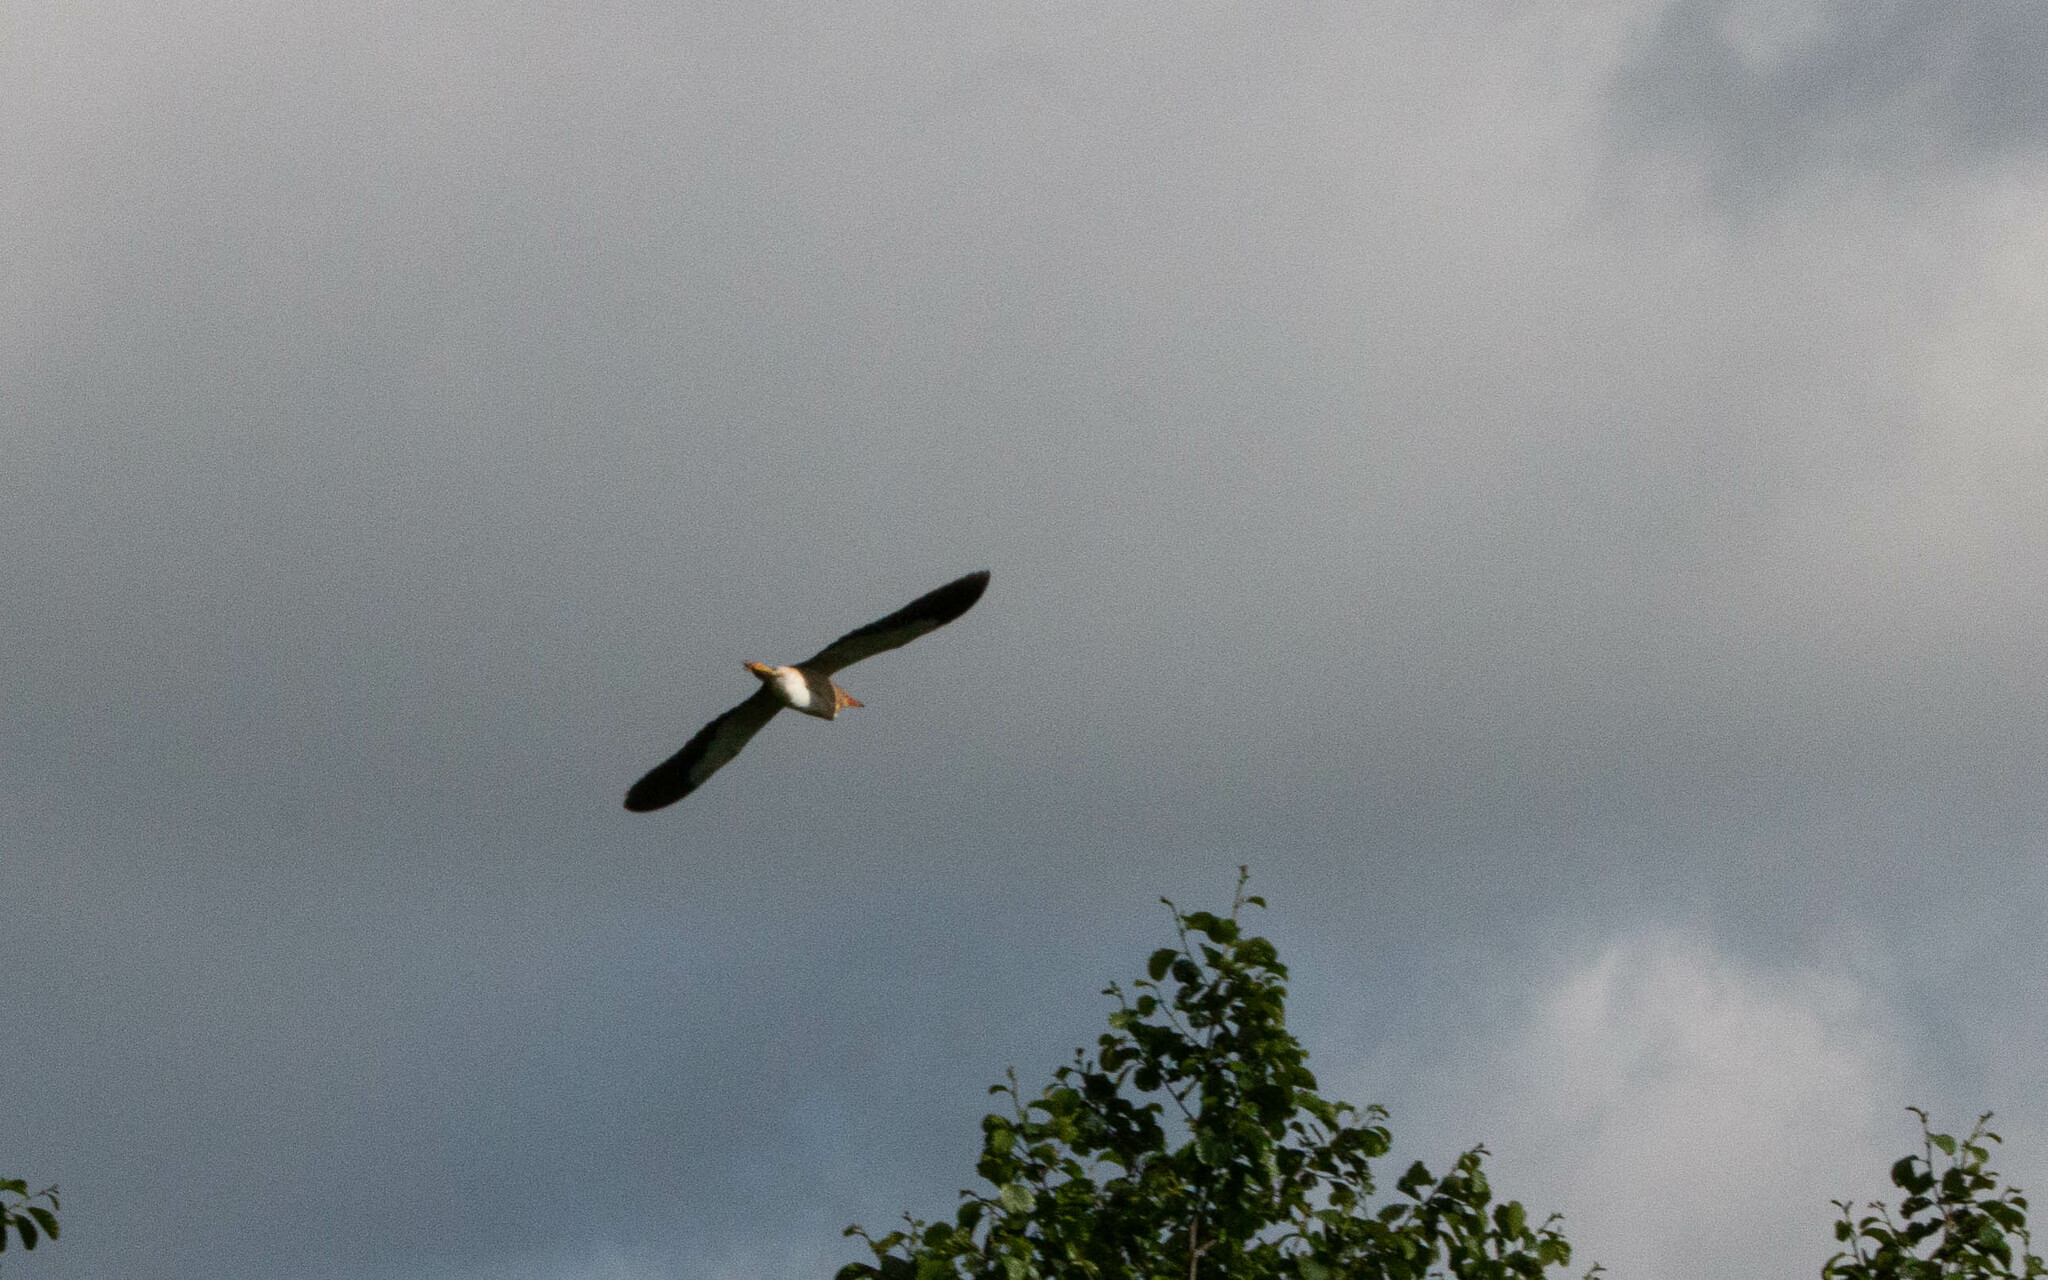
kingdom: Animalia
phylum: Chordata
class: Aves
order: Pelecaniformes
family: Ardeidae
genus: Ixobrychus
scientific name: Ixobrychus minutus
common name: Little bittern
